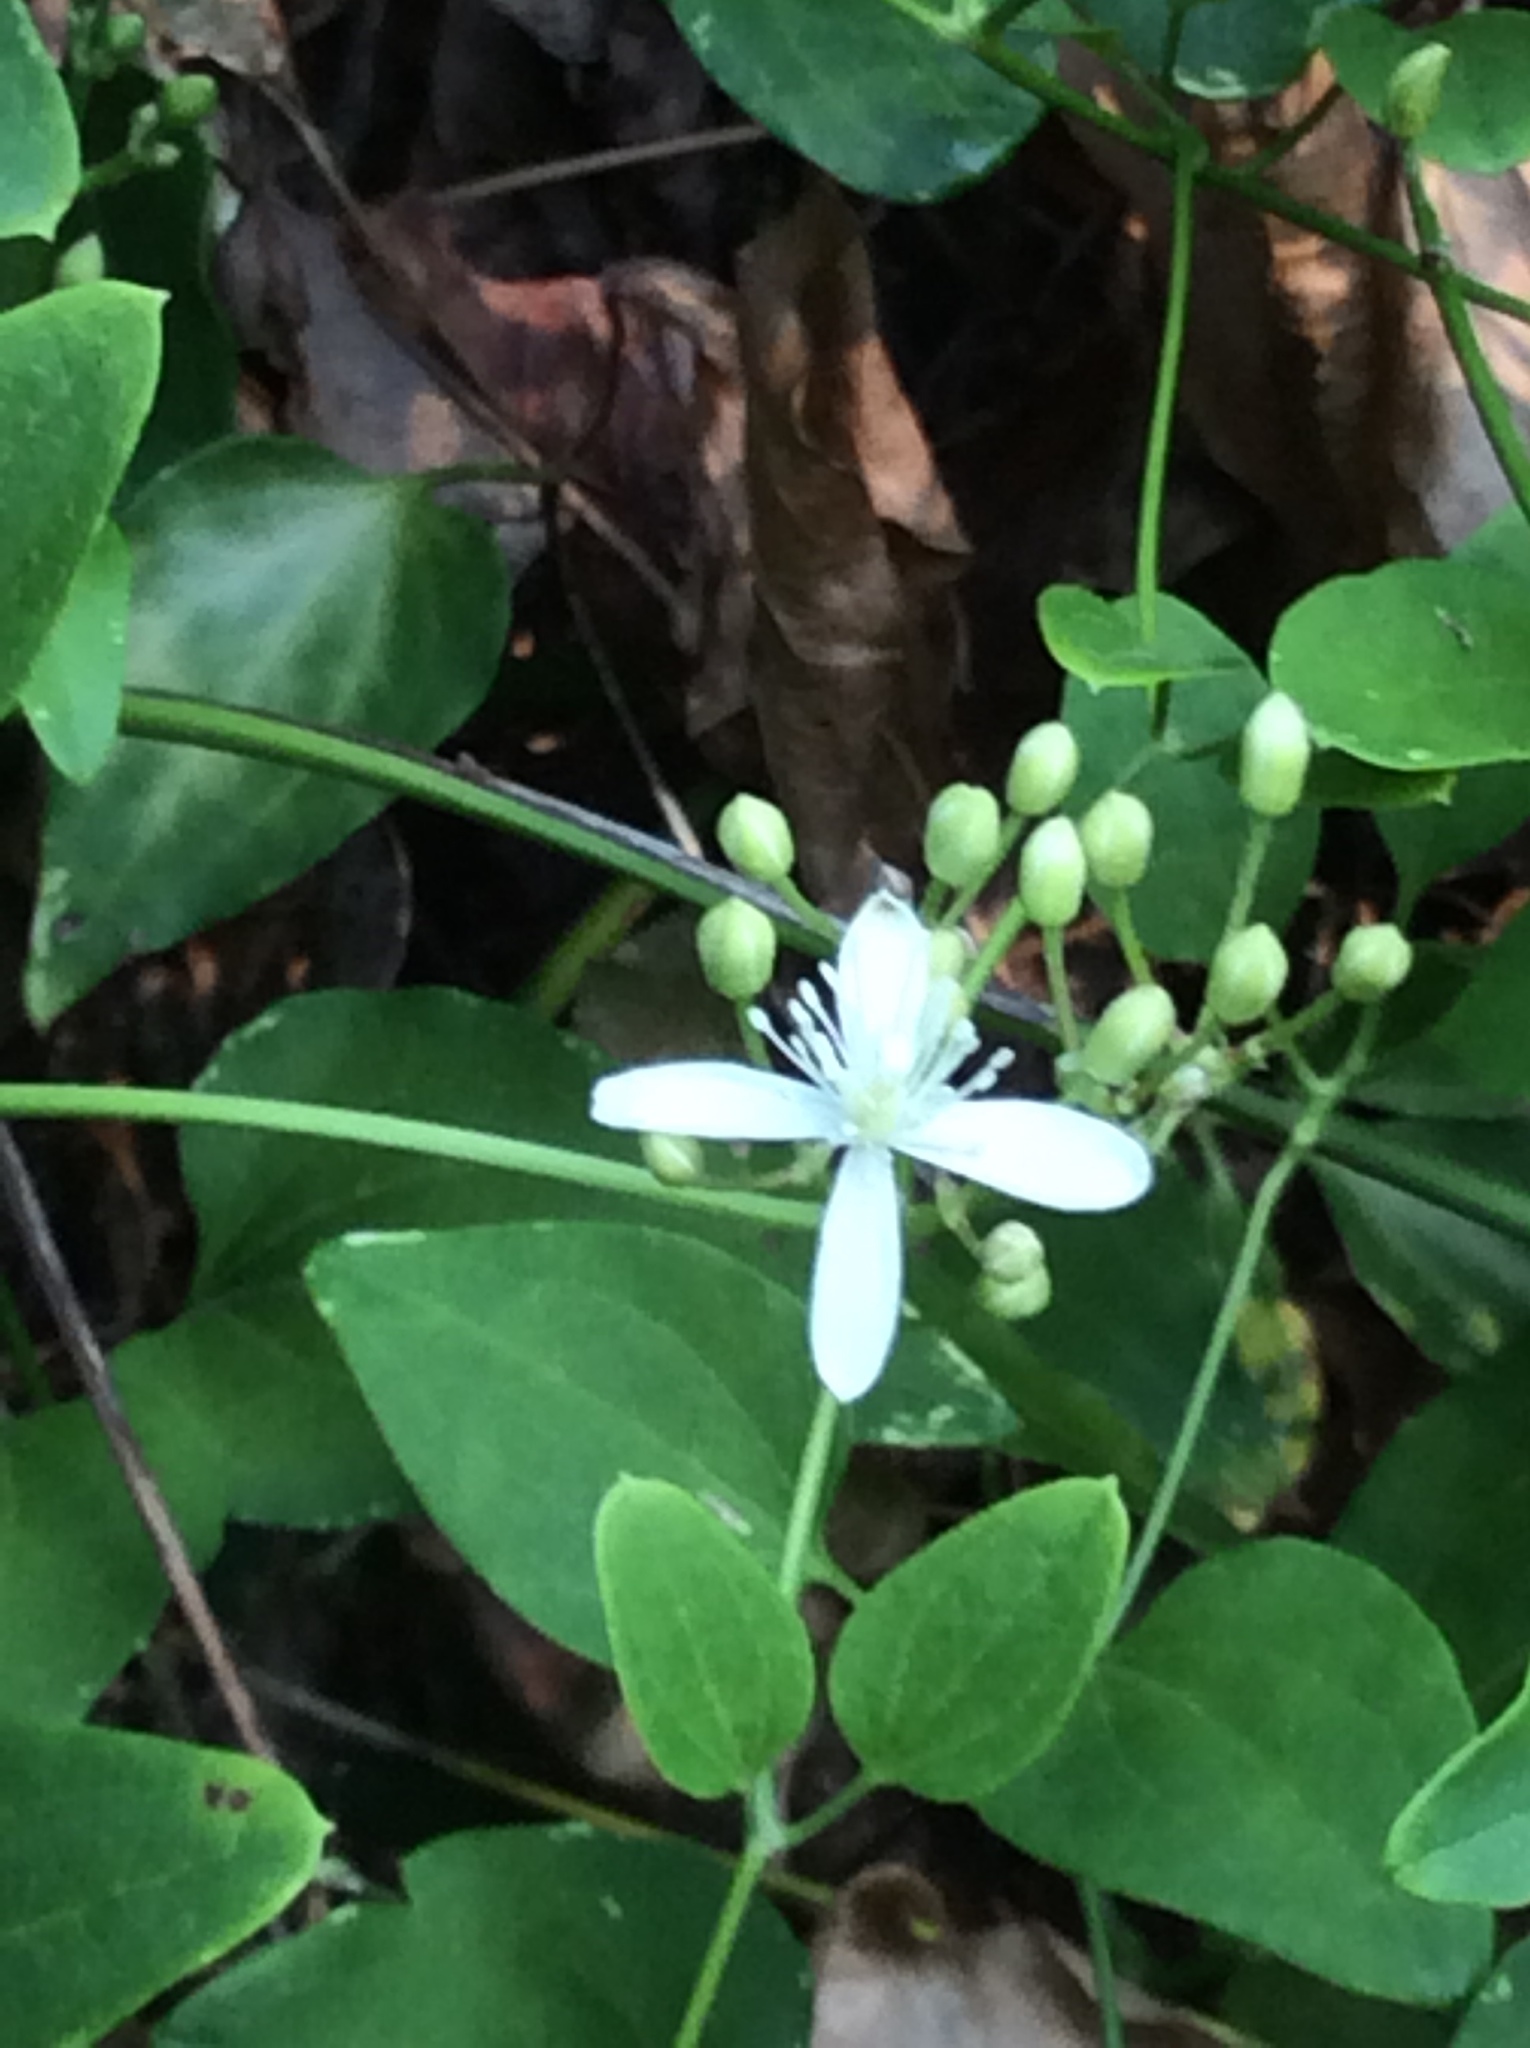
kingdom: Plantae
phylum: Tracheophyta
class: Magnoliopsida
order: Ranunculales
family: Ranunculaceae
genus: Clematis
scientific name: Clematis terniflora
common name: Sweet autumn clematis
